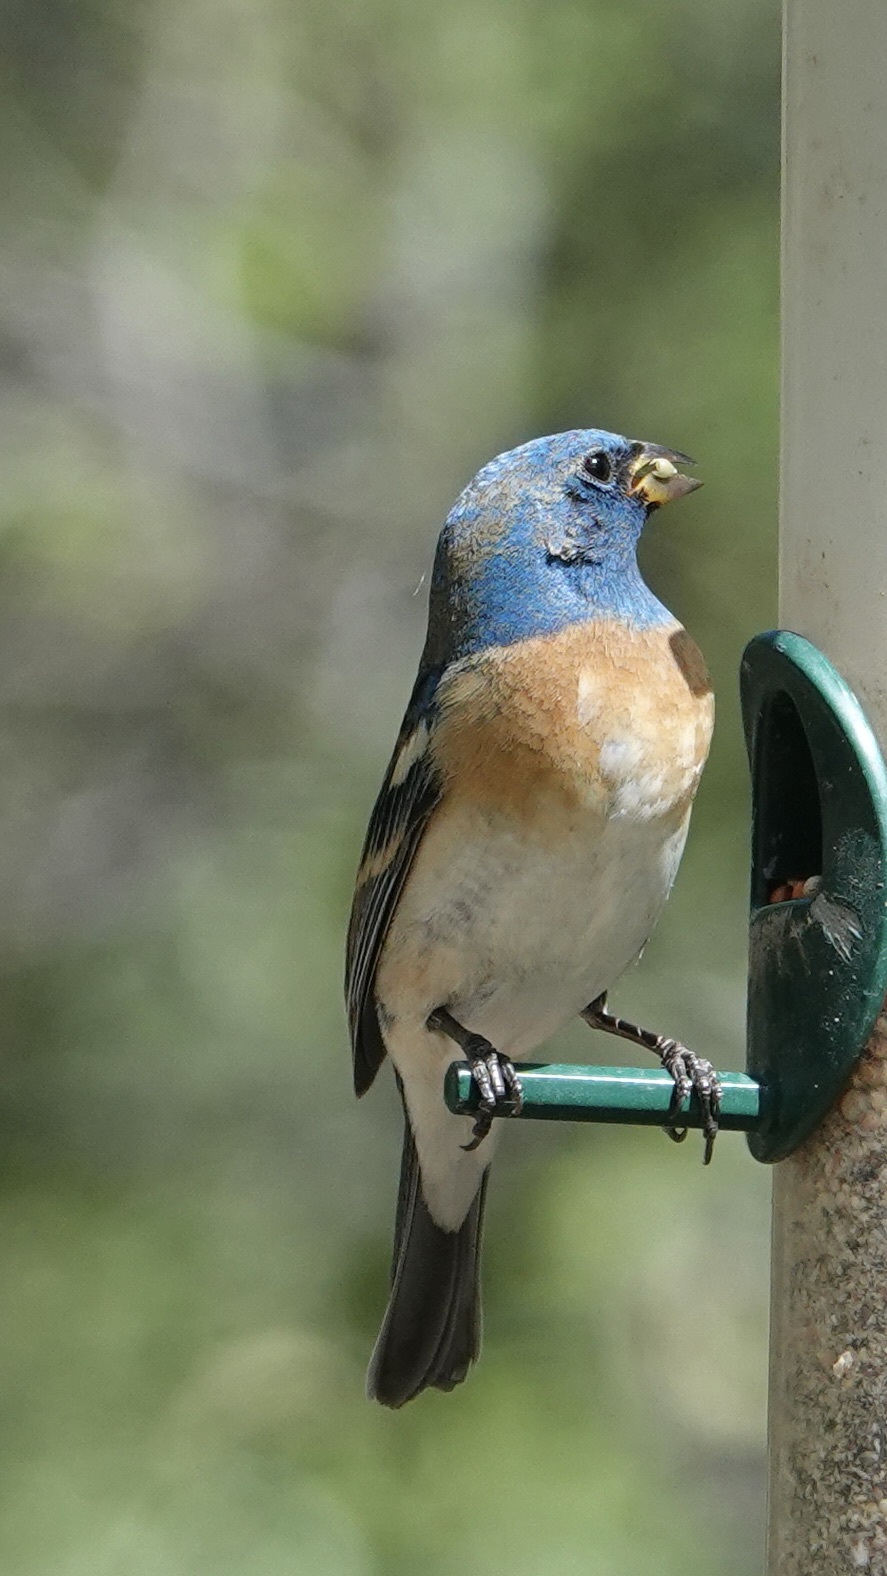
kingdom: Animalia
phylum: Chordata
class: Aves
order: Passeriformes
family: Cardinalidae
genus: Passerina
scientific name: Passerina amoena
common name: Lazuli bunting
